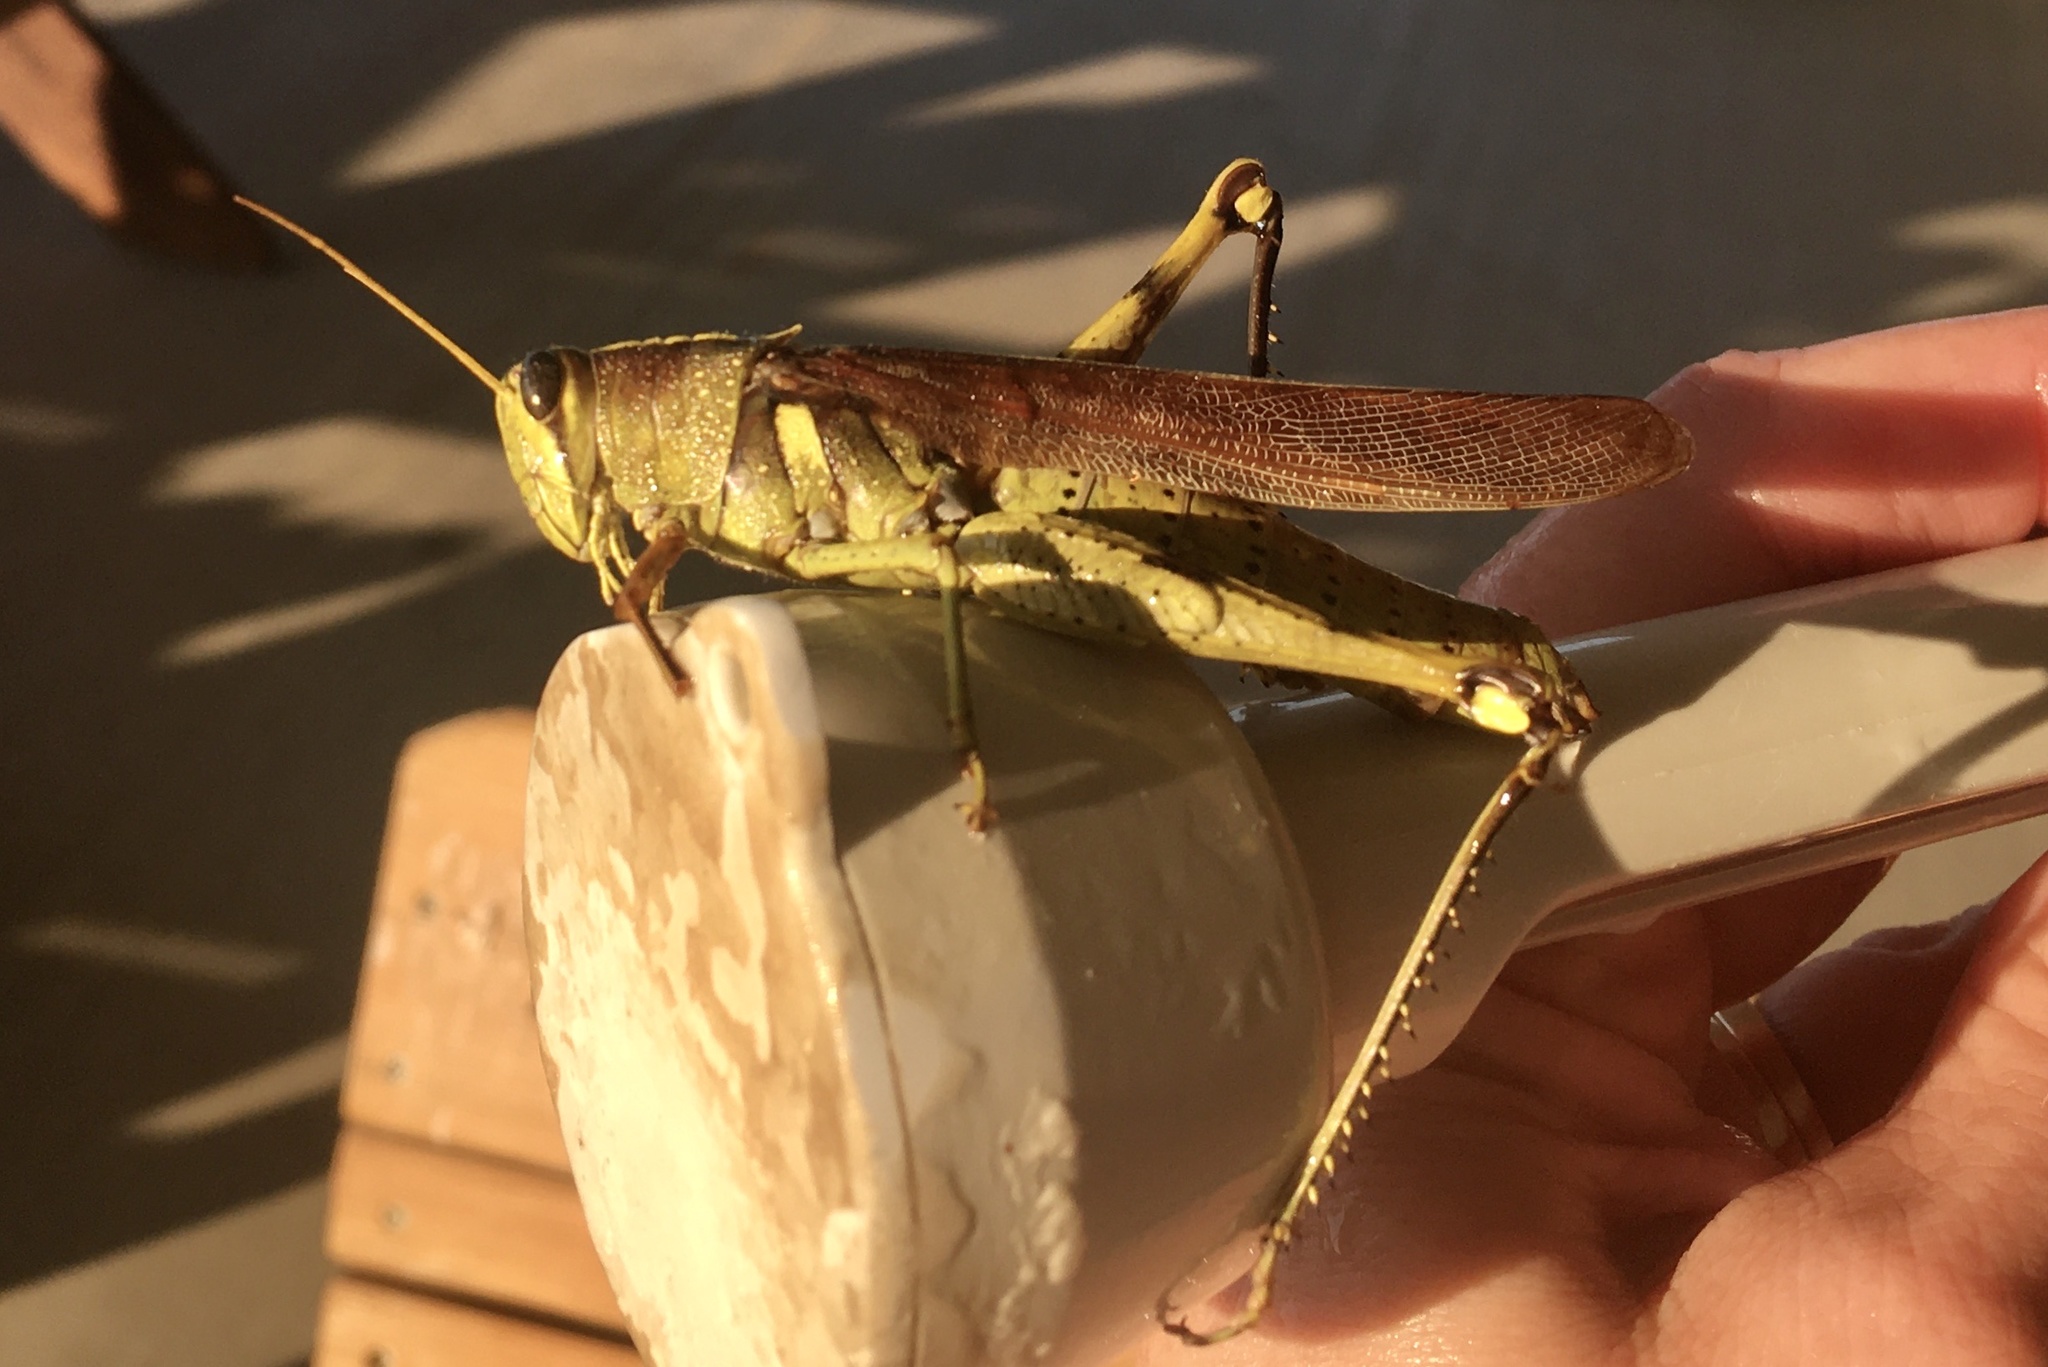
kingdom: Animalia
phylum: Arthropoda
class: Insecta
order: Orthoptera
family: Acrididae
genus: Schistocerca
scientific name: Schistocerca obscura
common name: Obscure bird grasshopper
